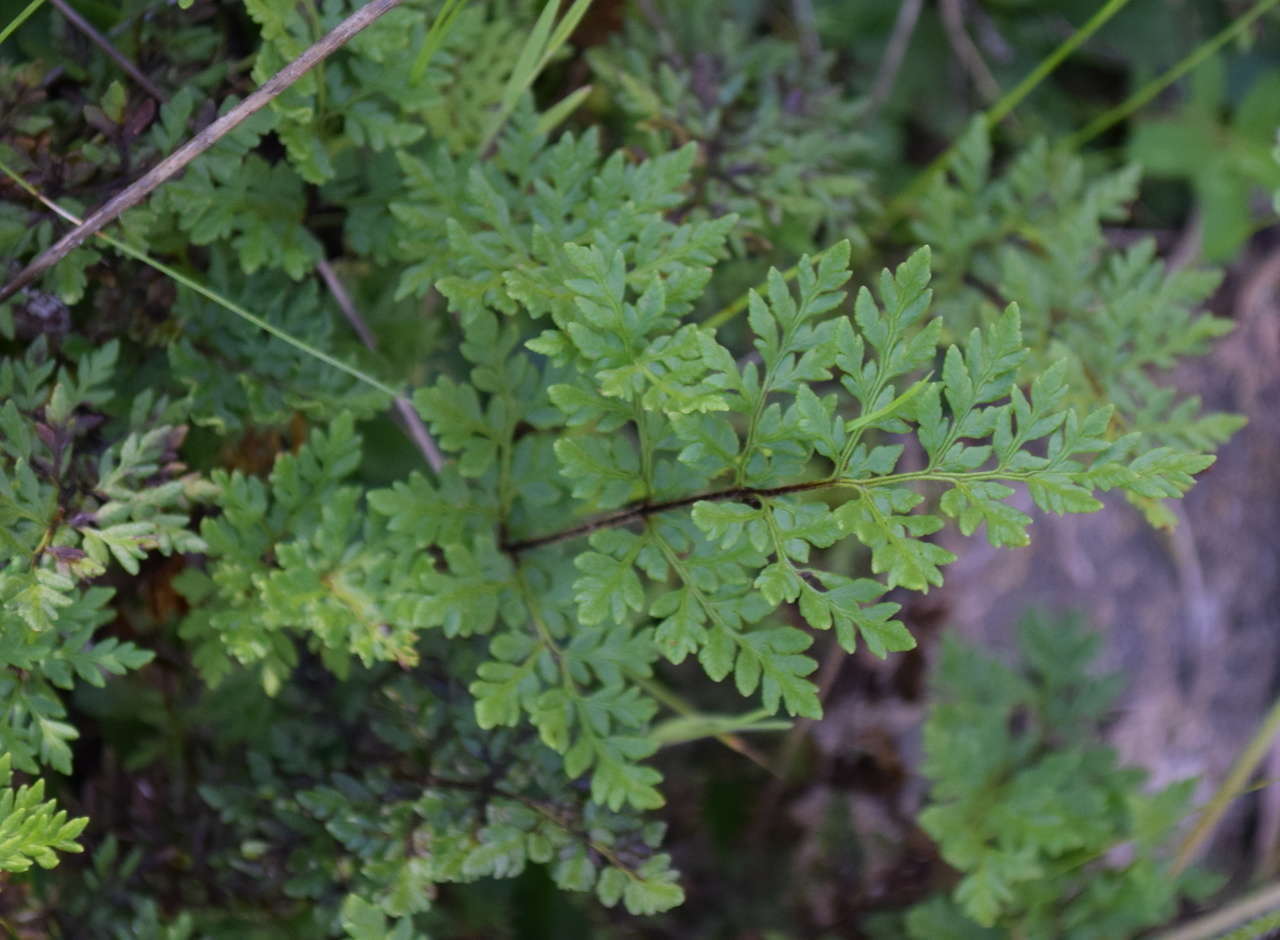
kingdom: Plantae
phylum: Tracheophyta
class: Polypodiopsida
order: Polypodiales
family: Pteridaceae
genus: Cheilanthes
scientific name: Cheilanthes austrotenuifolia
